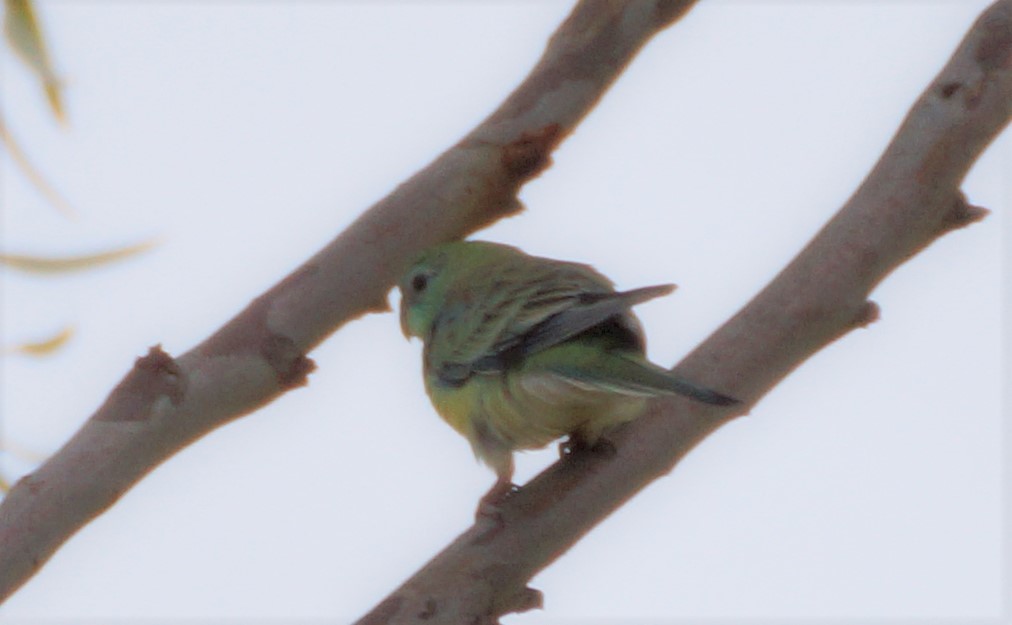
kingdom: Animalia
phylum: Chordata
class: Aves
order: Psittaciformes
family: Psittacidae
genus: Psephotus
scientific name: Psephotus haematonotus
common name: Red-rumped parrot
